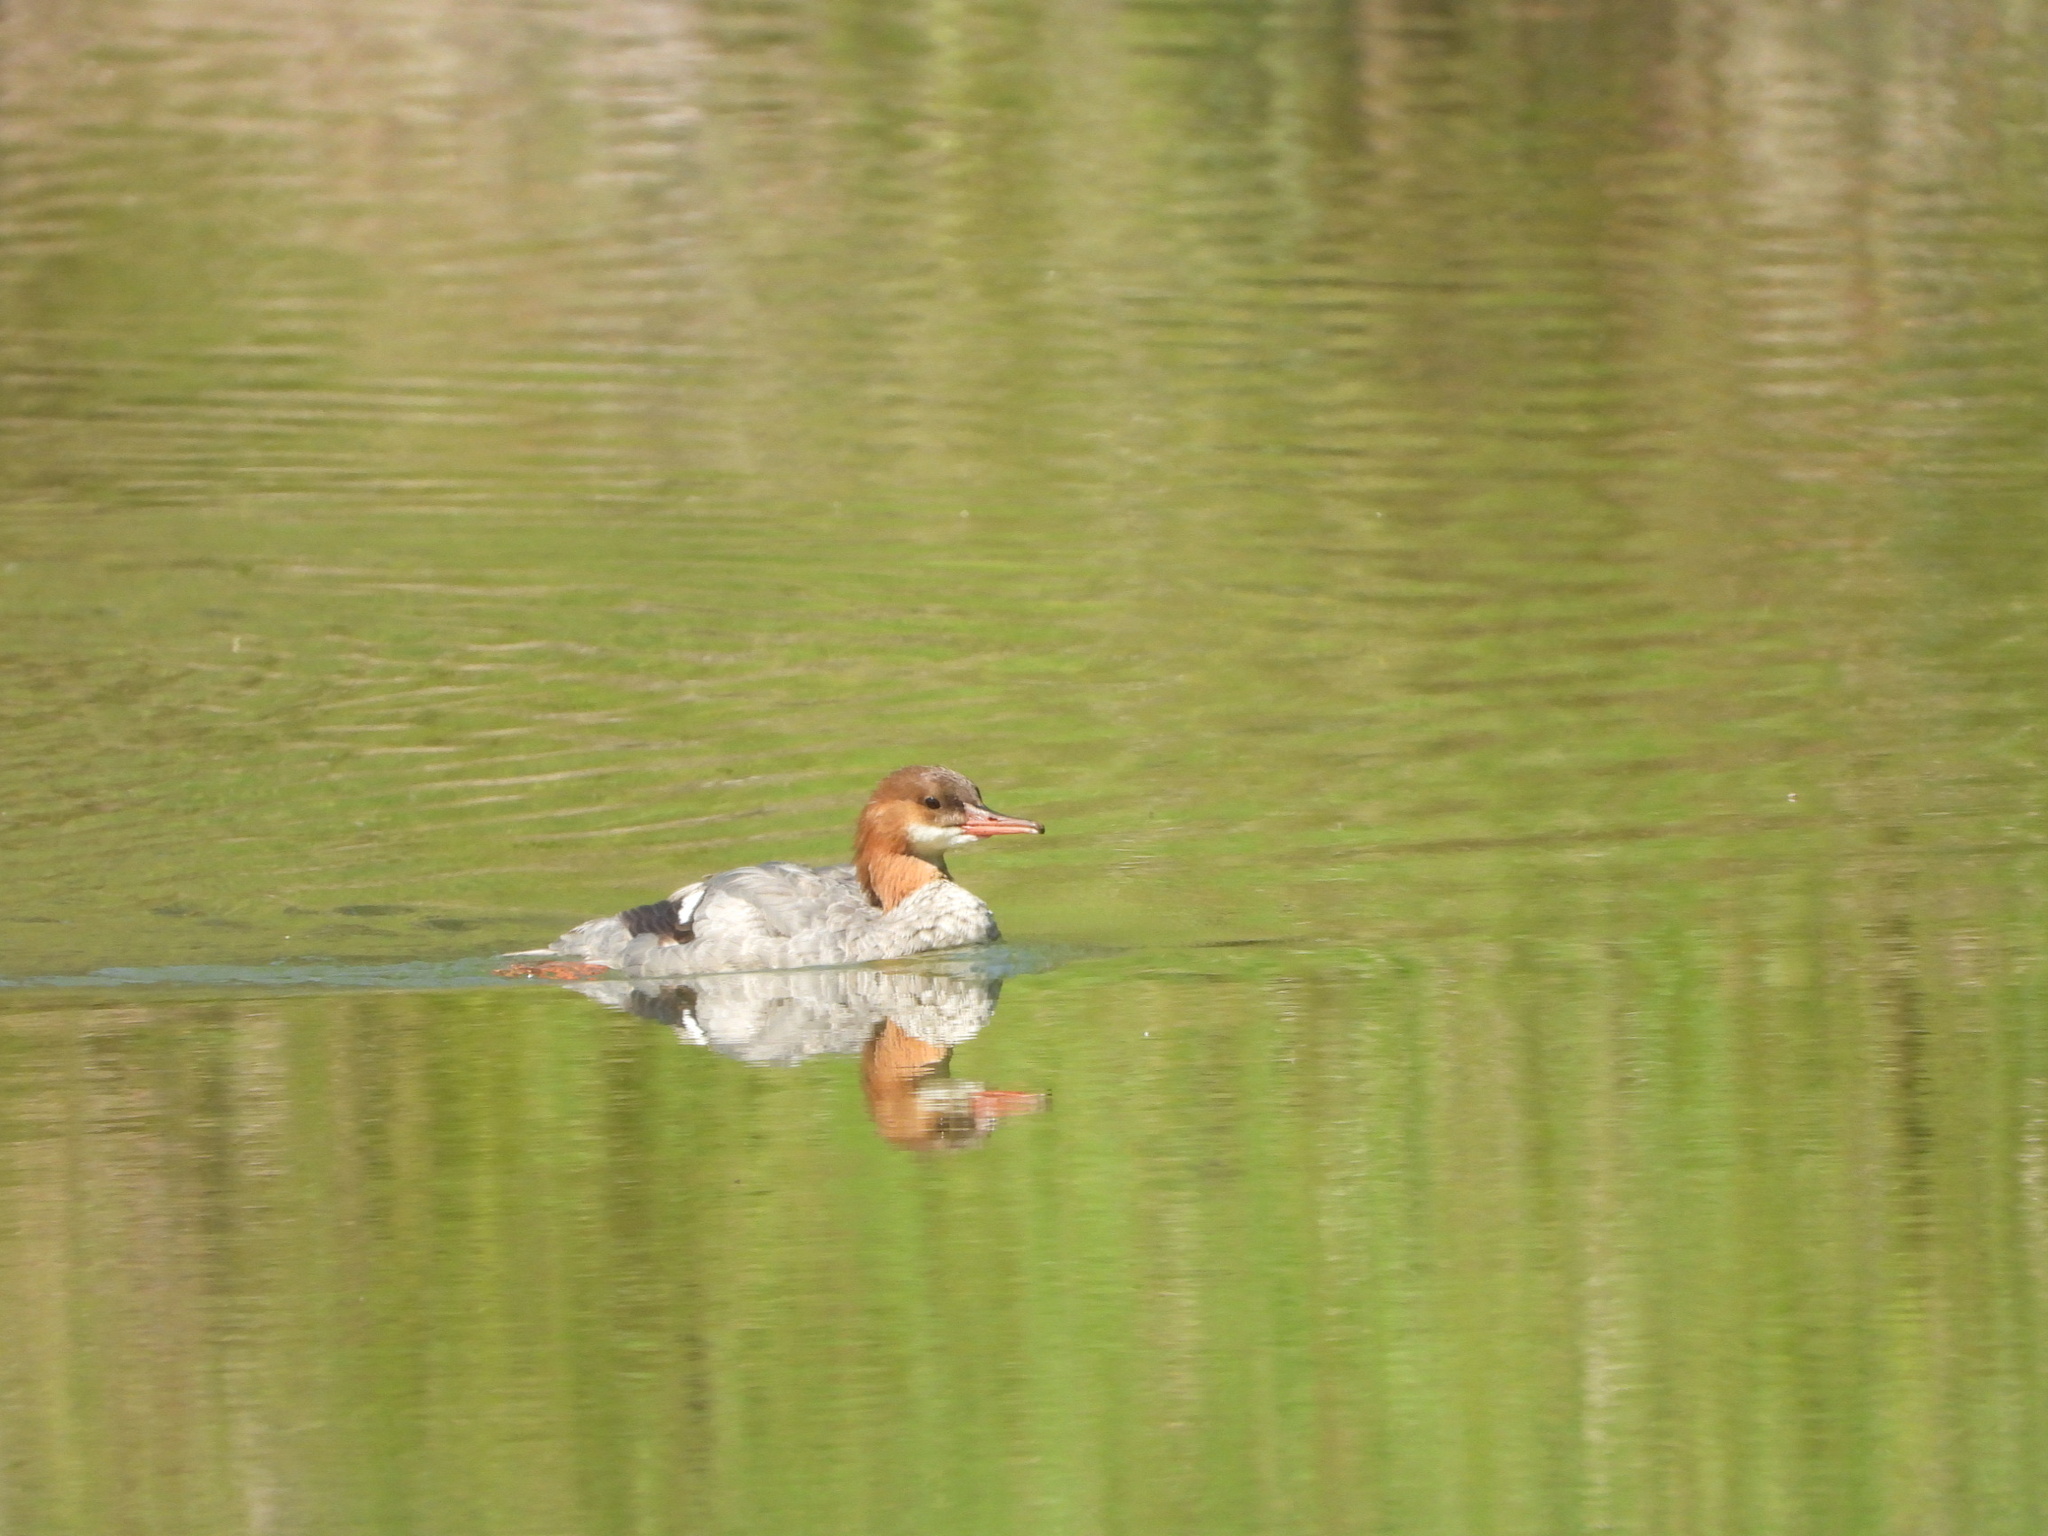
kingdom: Animalia
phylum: Chordata
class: Aves
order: Anseriformes
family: Anatidae
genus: Mergus
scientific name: Mergus merganser
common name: Common merganser
